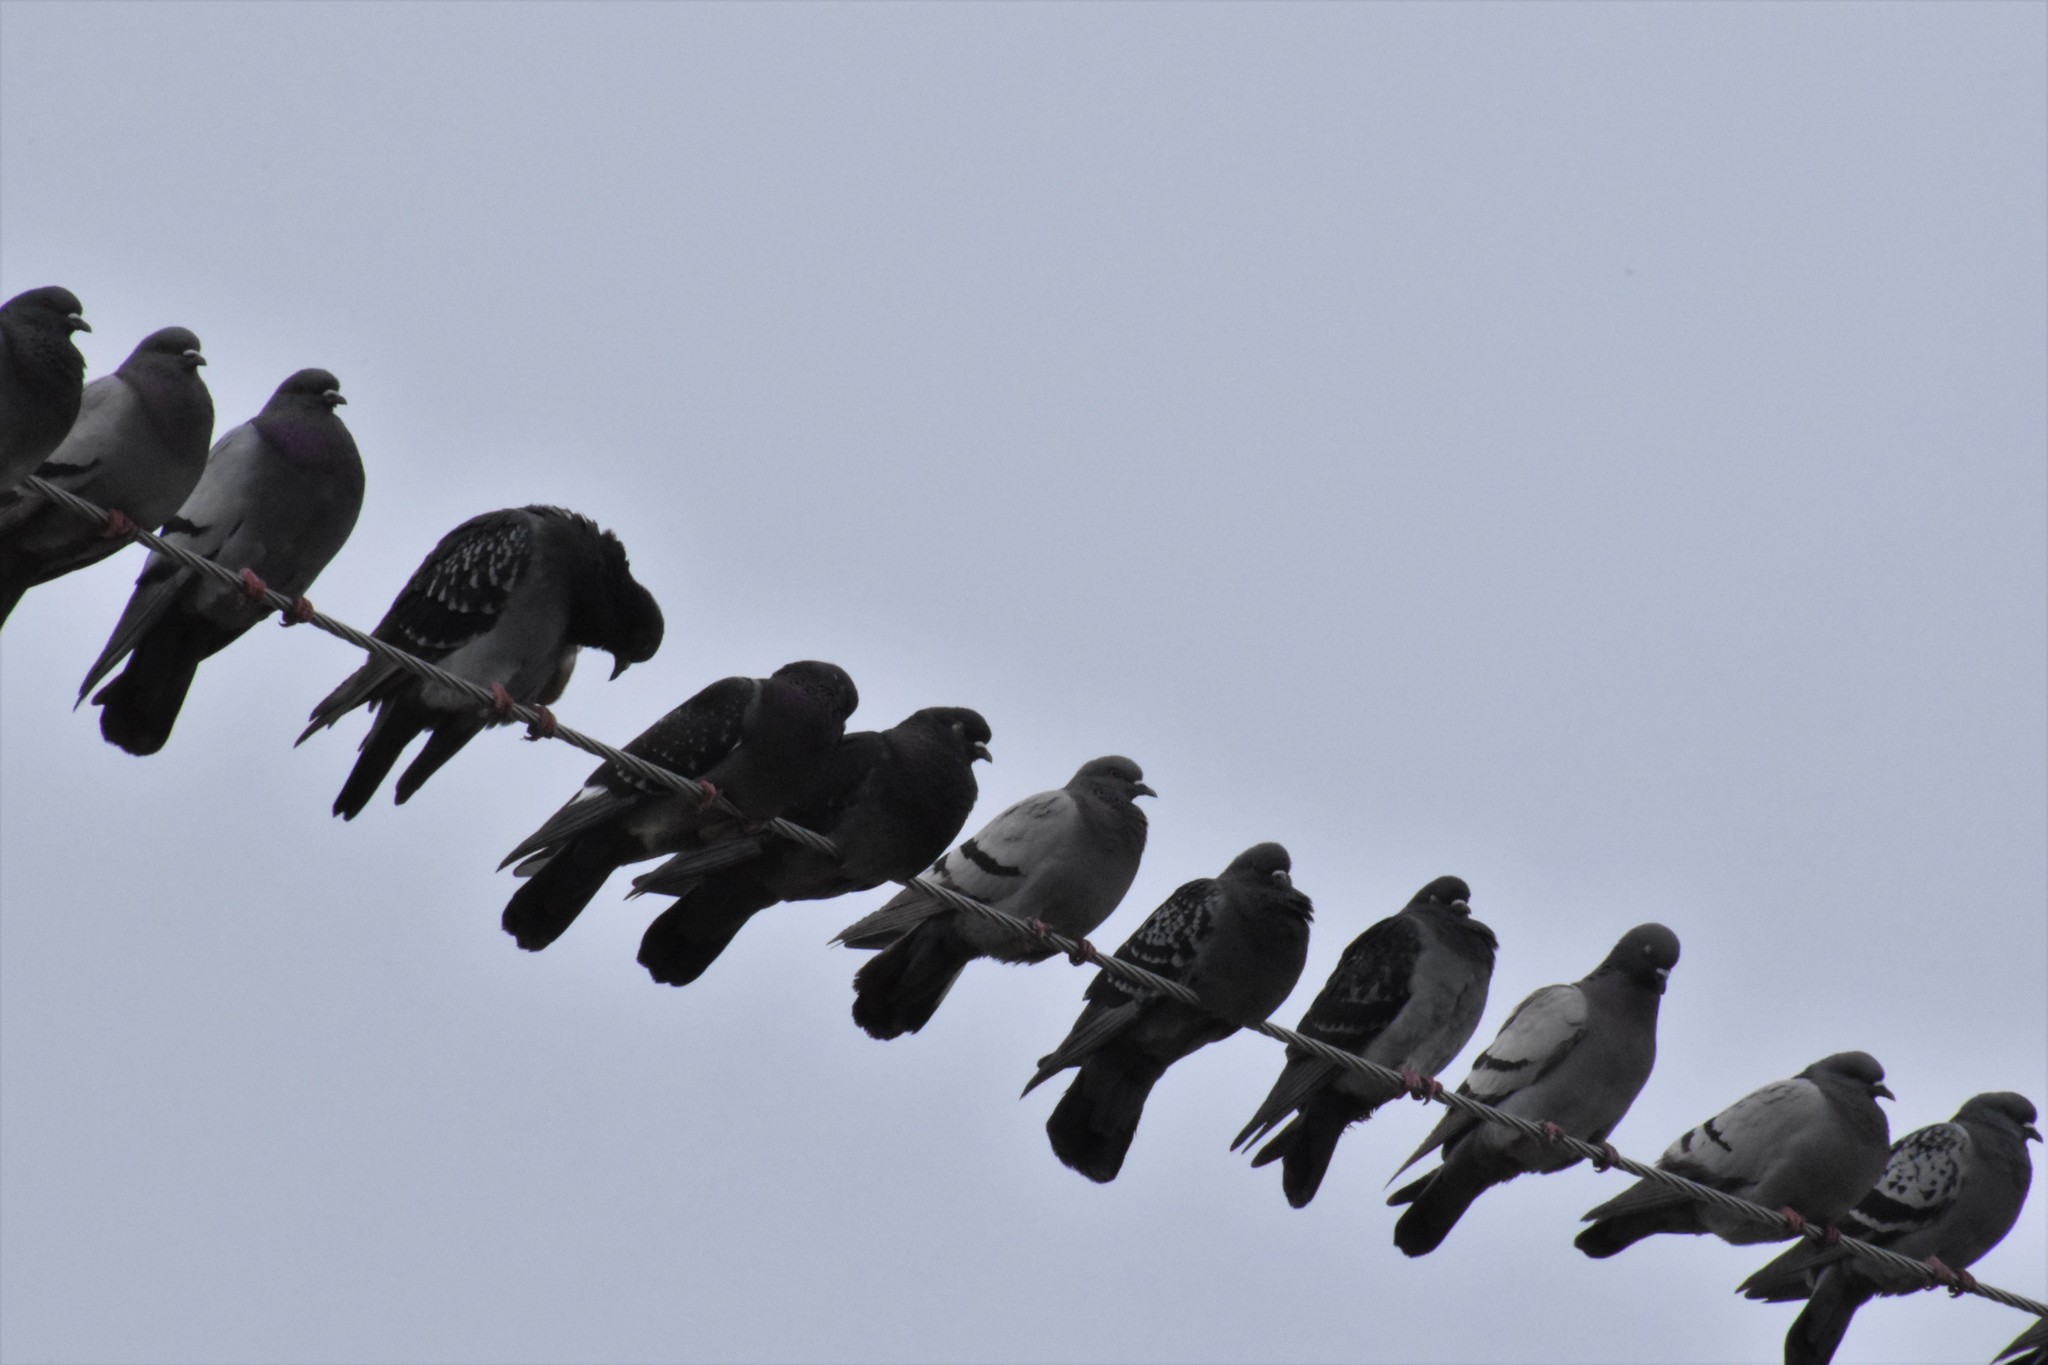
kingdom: Animalia
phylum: Chordata
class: Aves
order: Columbiformes
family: Columbidae
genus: Columba
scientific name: Columba livia
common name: Rock pigeon
